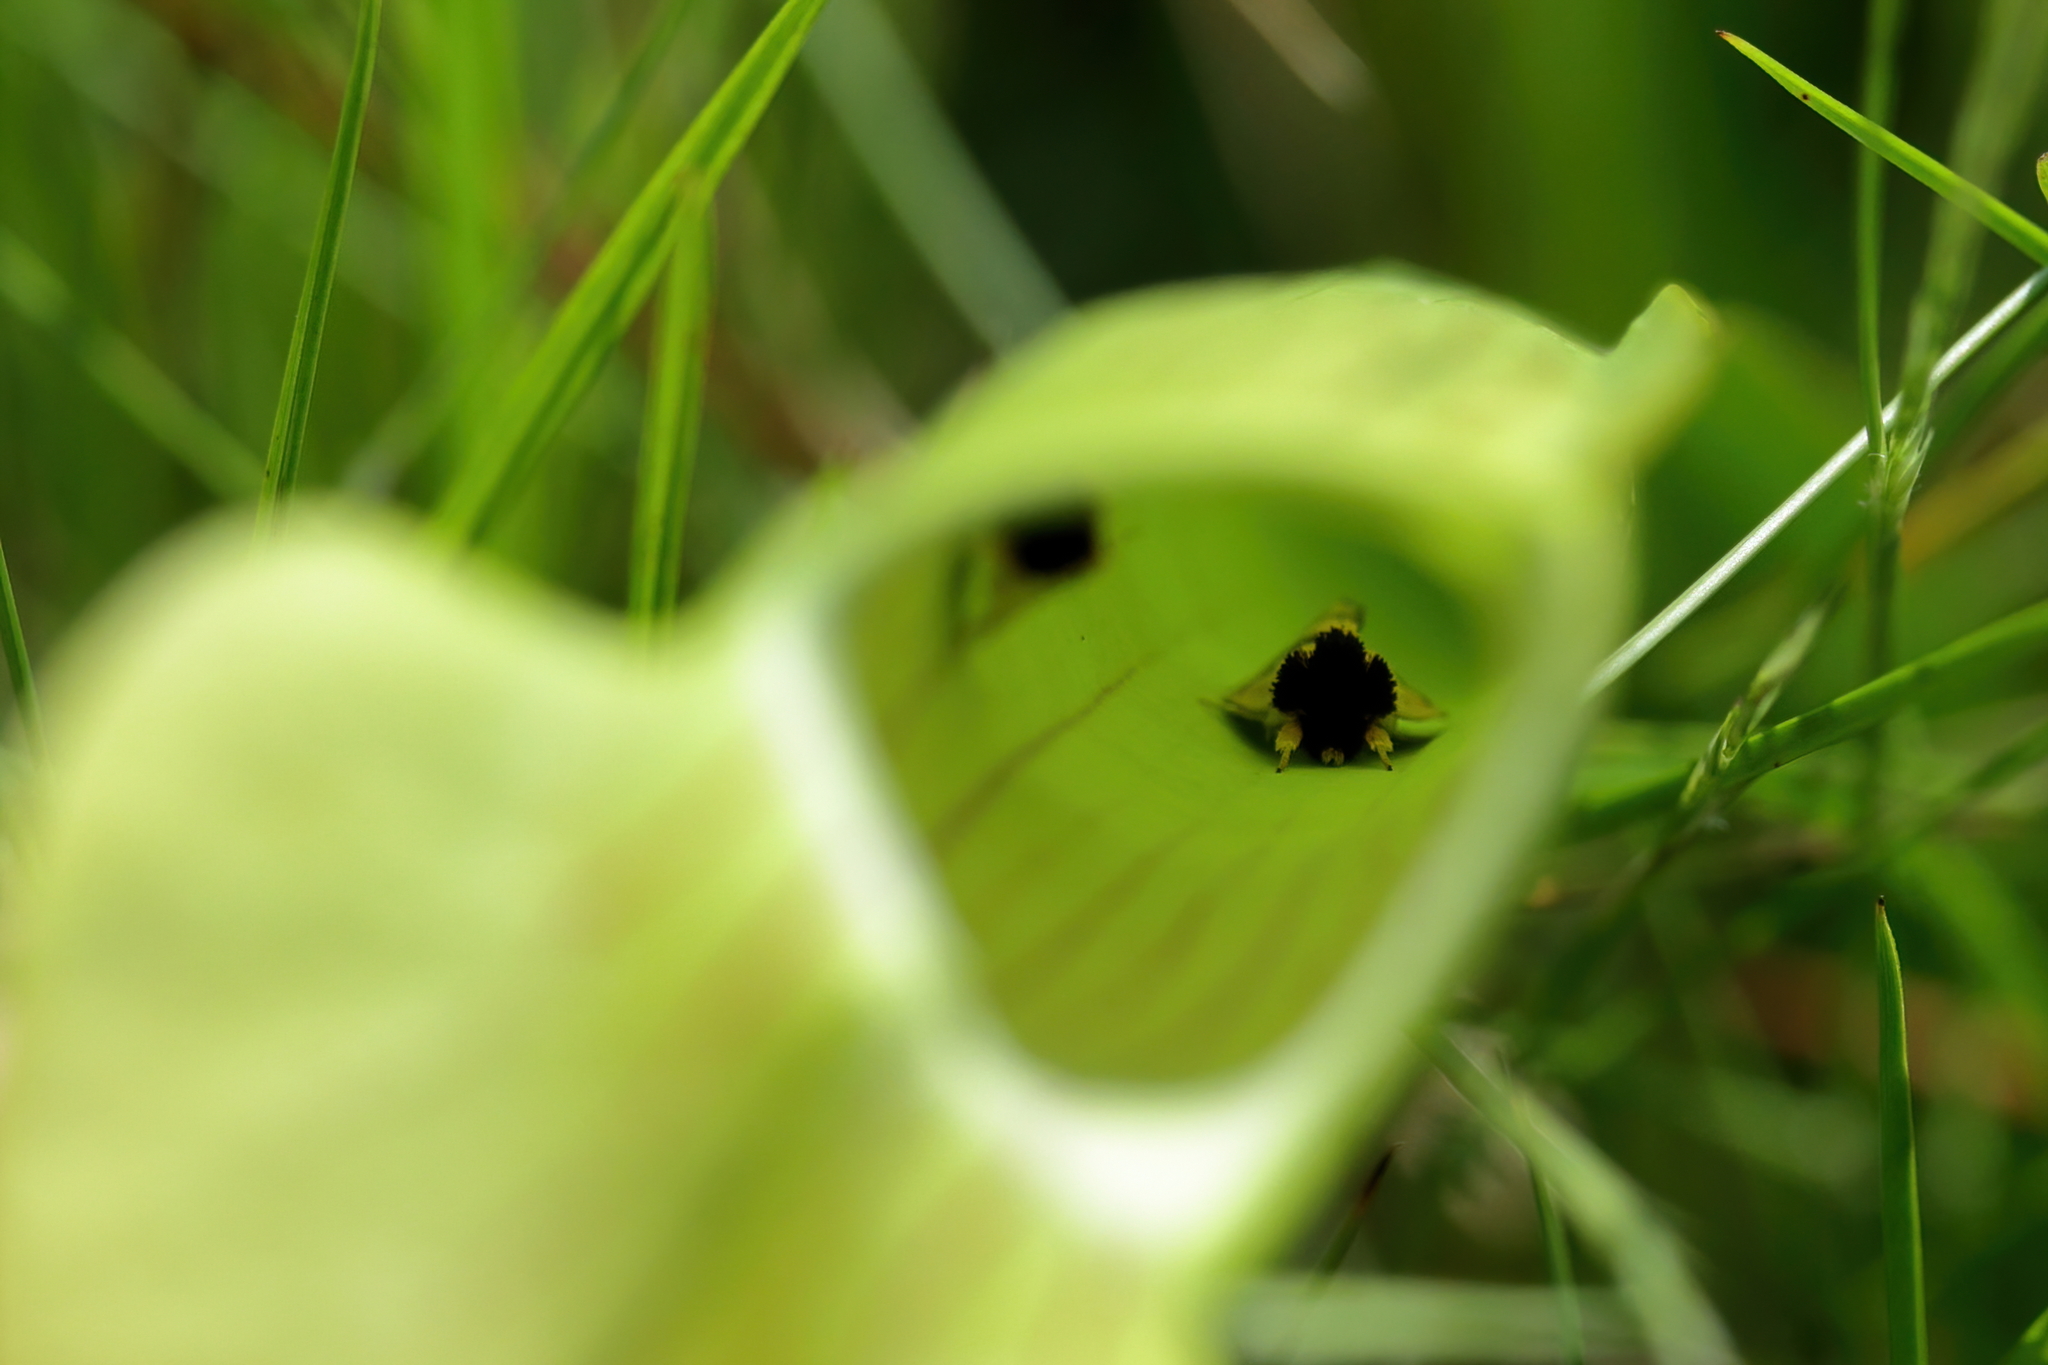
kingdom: Animalia
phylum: Arthropoda
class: Insecta
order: Lepidoptera
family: Noctuidae
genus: Exyra
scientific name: Exyra semicrocea
